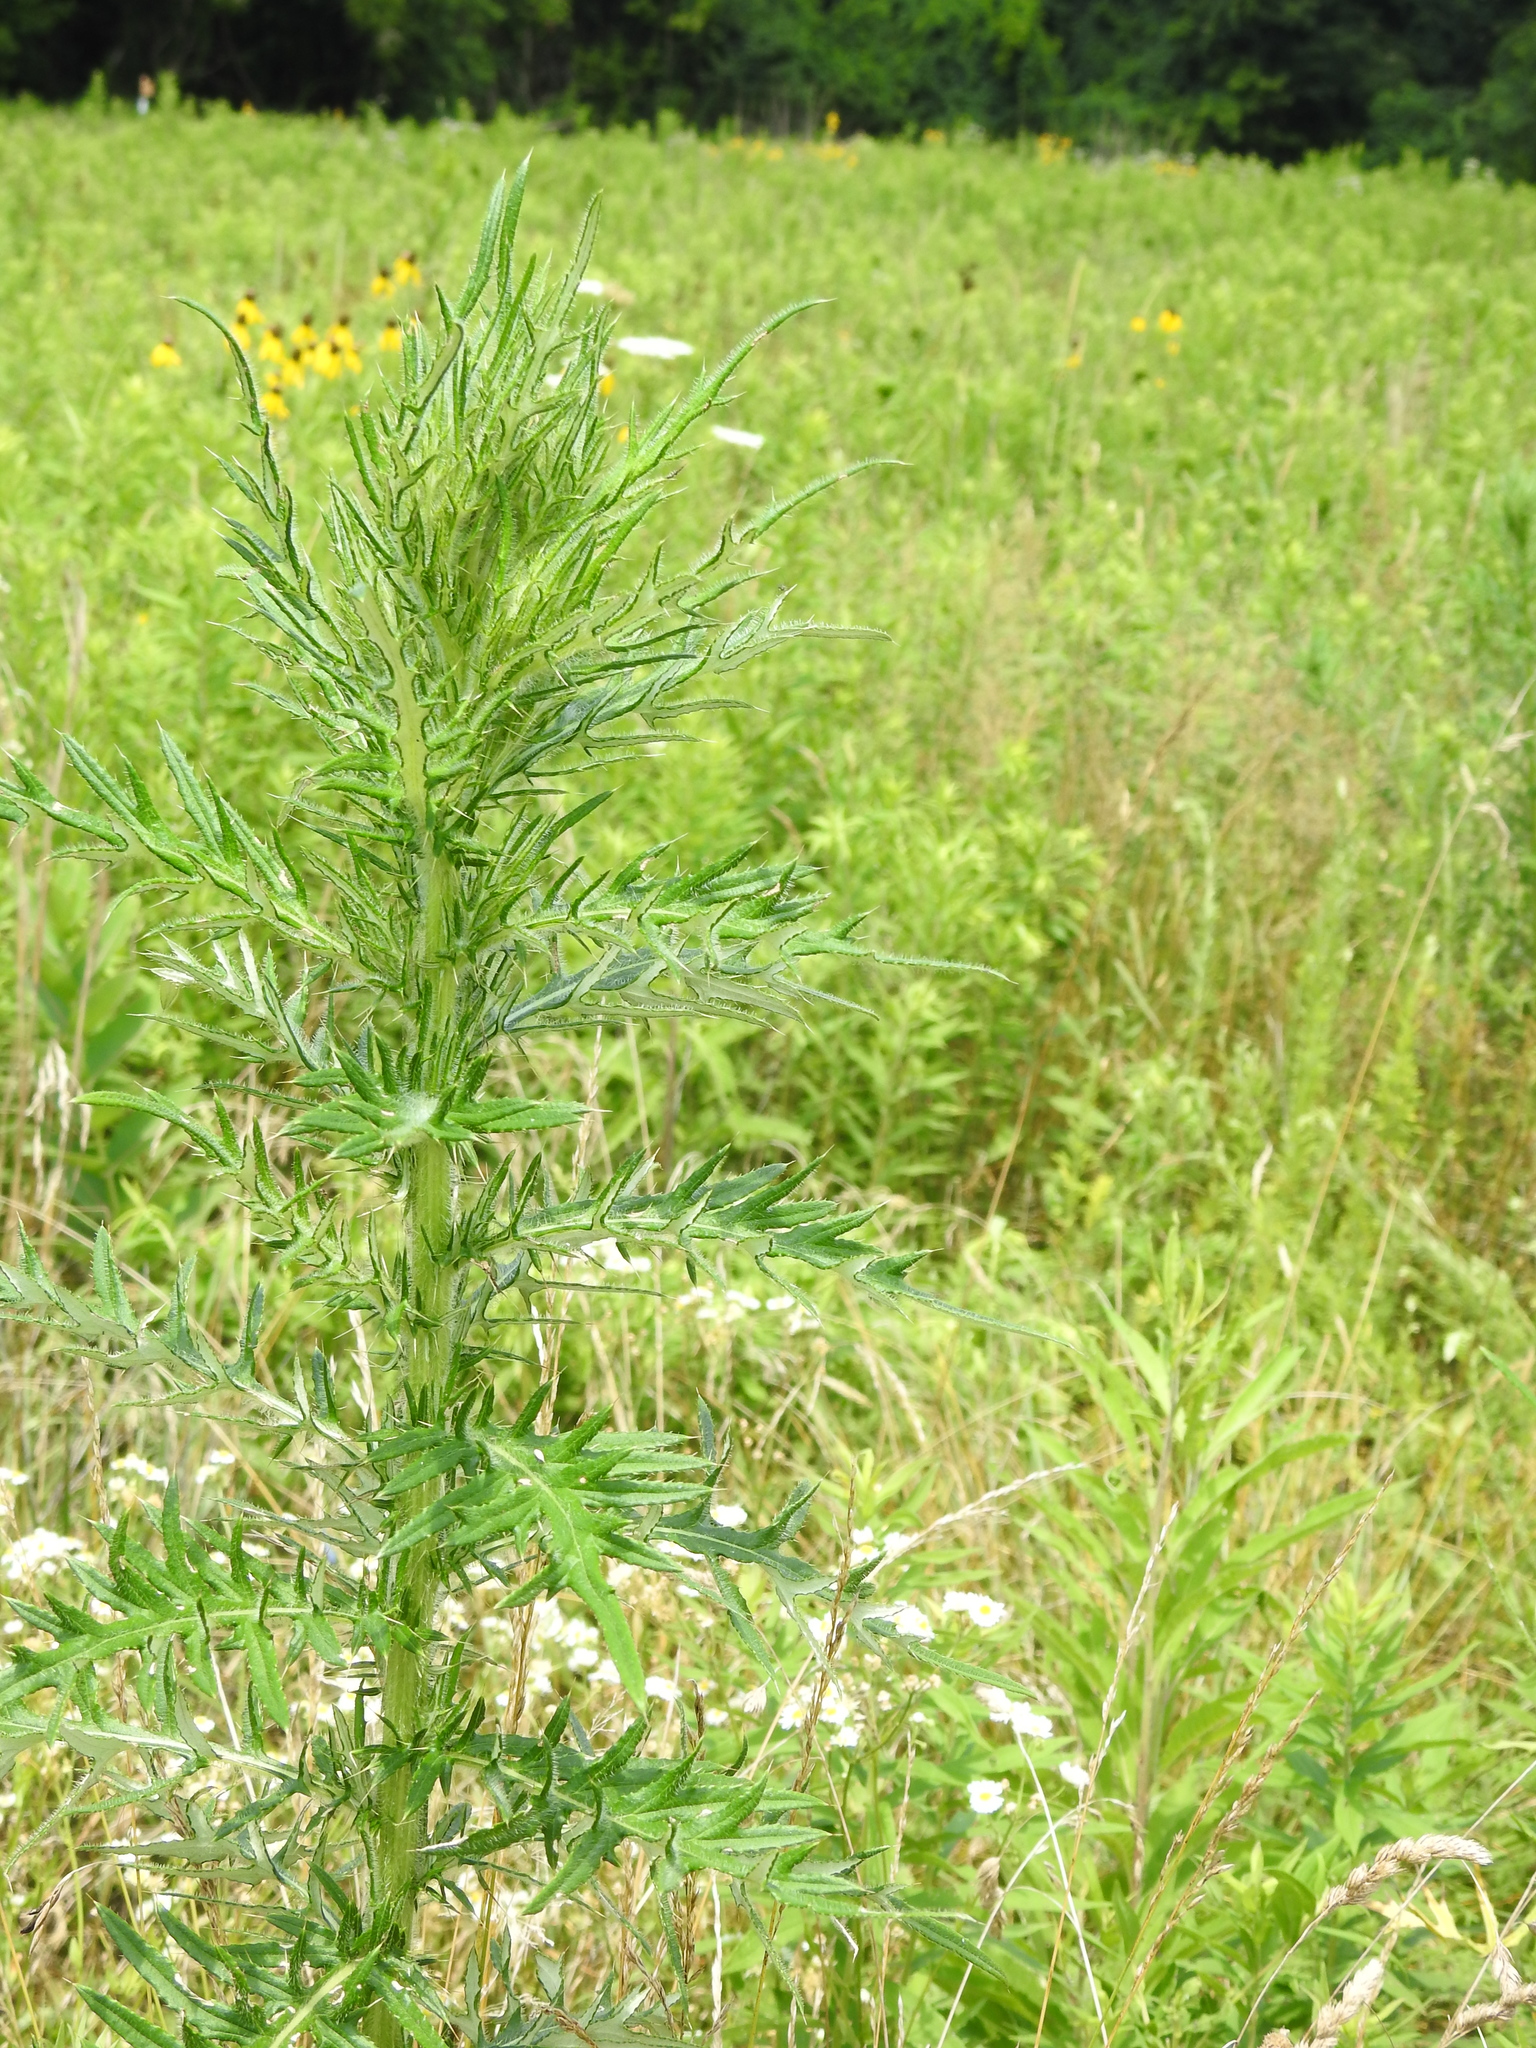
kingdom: Plantae
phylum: Tracheophyta
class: Magnoliopsida
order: Asterales
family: Asteraceae
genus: Cirsium
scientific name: Cirsium discolor
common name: Field thistle
